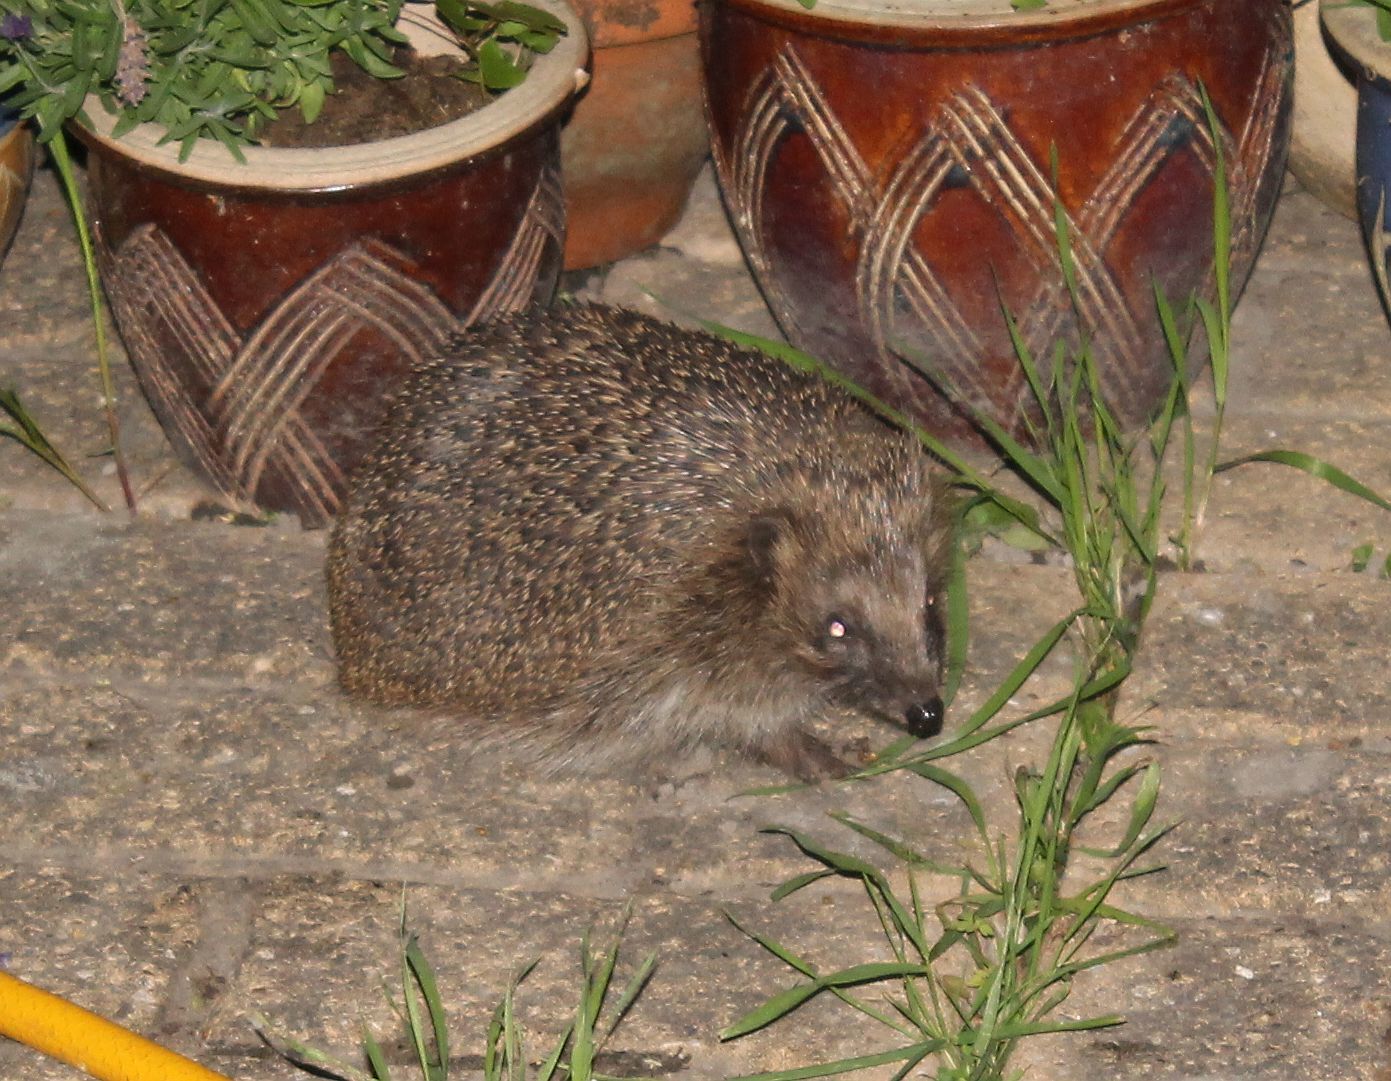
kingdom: Animalia
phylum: Chordata
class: Mammalia
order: Erinaceomorpha
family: Erinaceidae
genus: Erinaceus
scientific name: Erinaceus europaeus
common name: West european hedgehog
